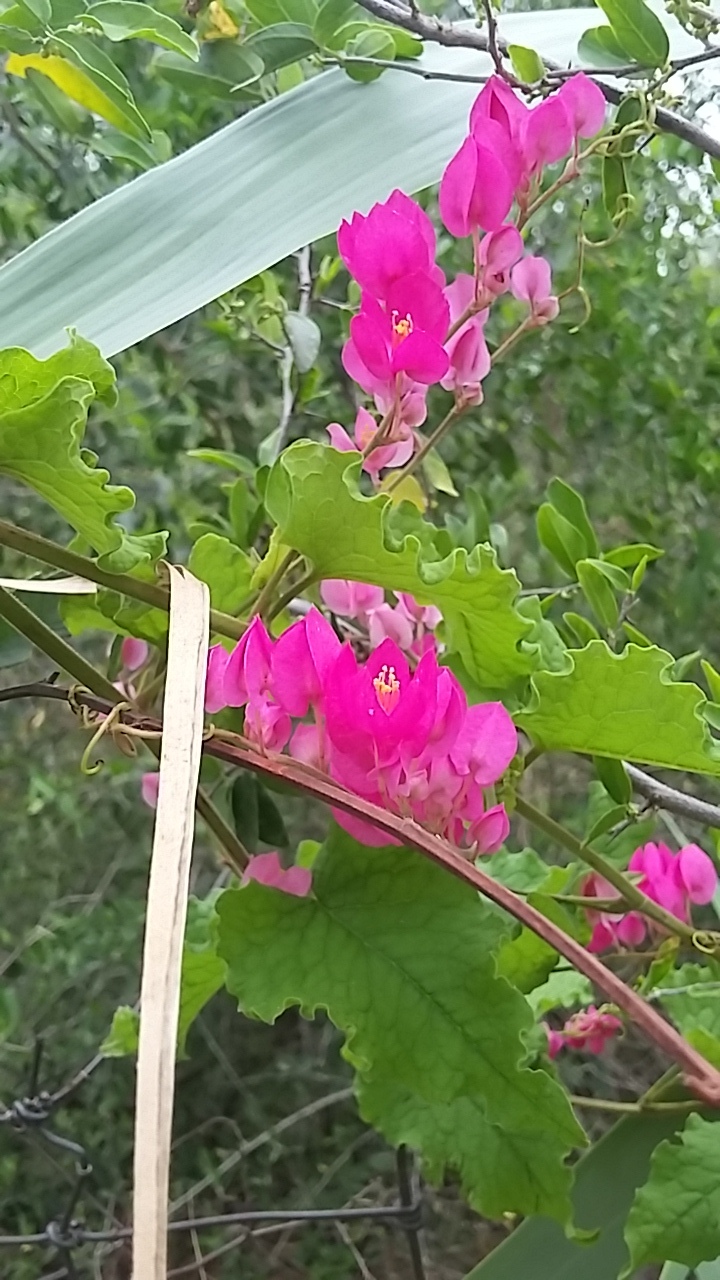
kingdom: Plantae
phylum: Tracheophyta
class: Magnoliopsida
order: Caryophyllales
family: Polygonaceae
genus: Antigonon
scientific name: Antigonon leptopus
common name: Coral vine
